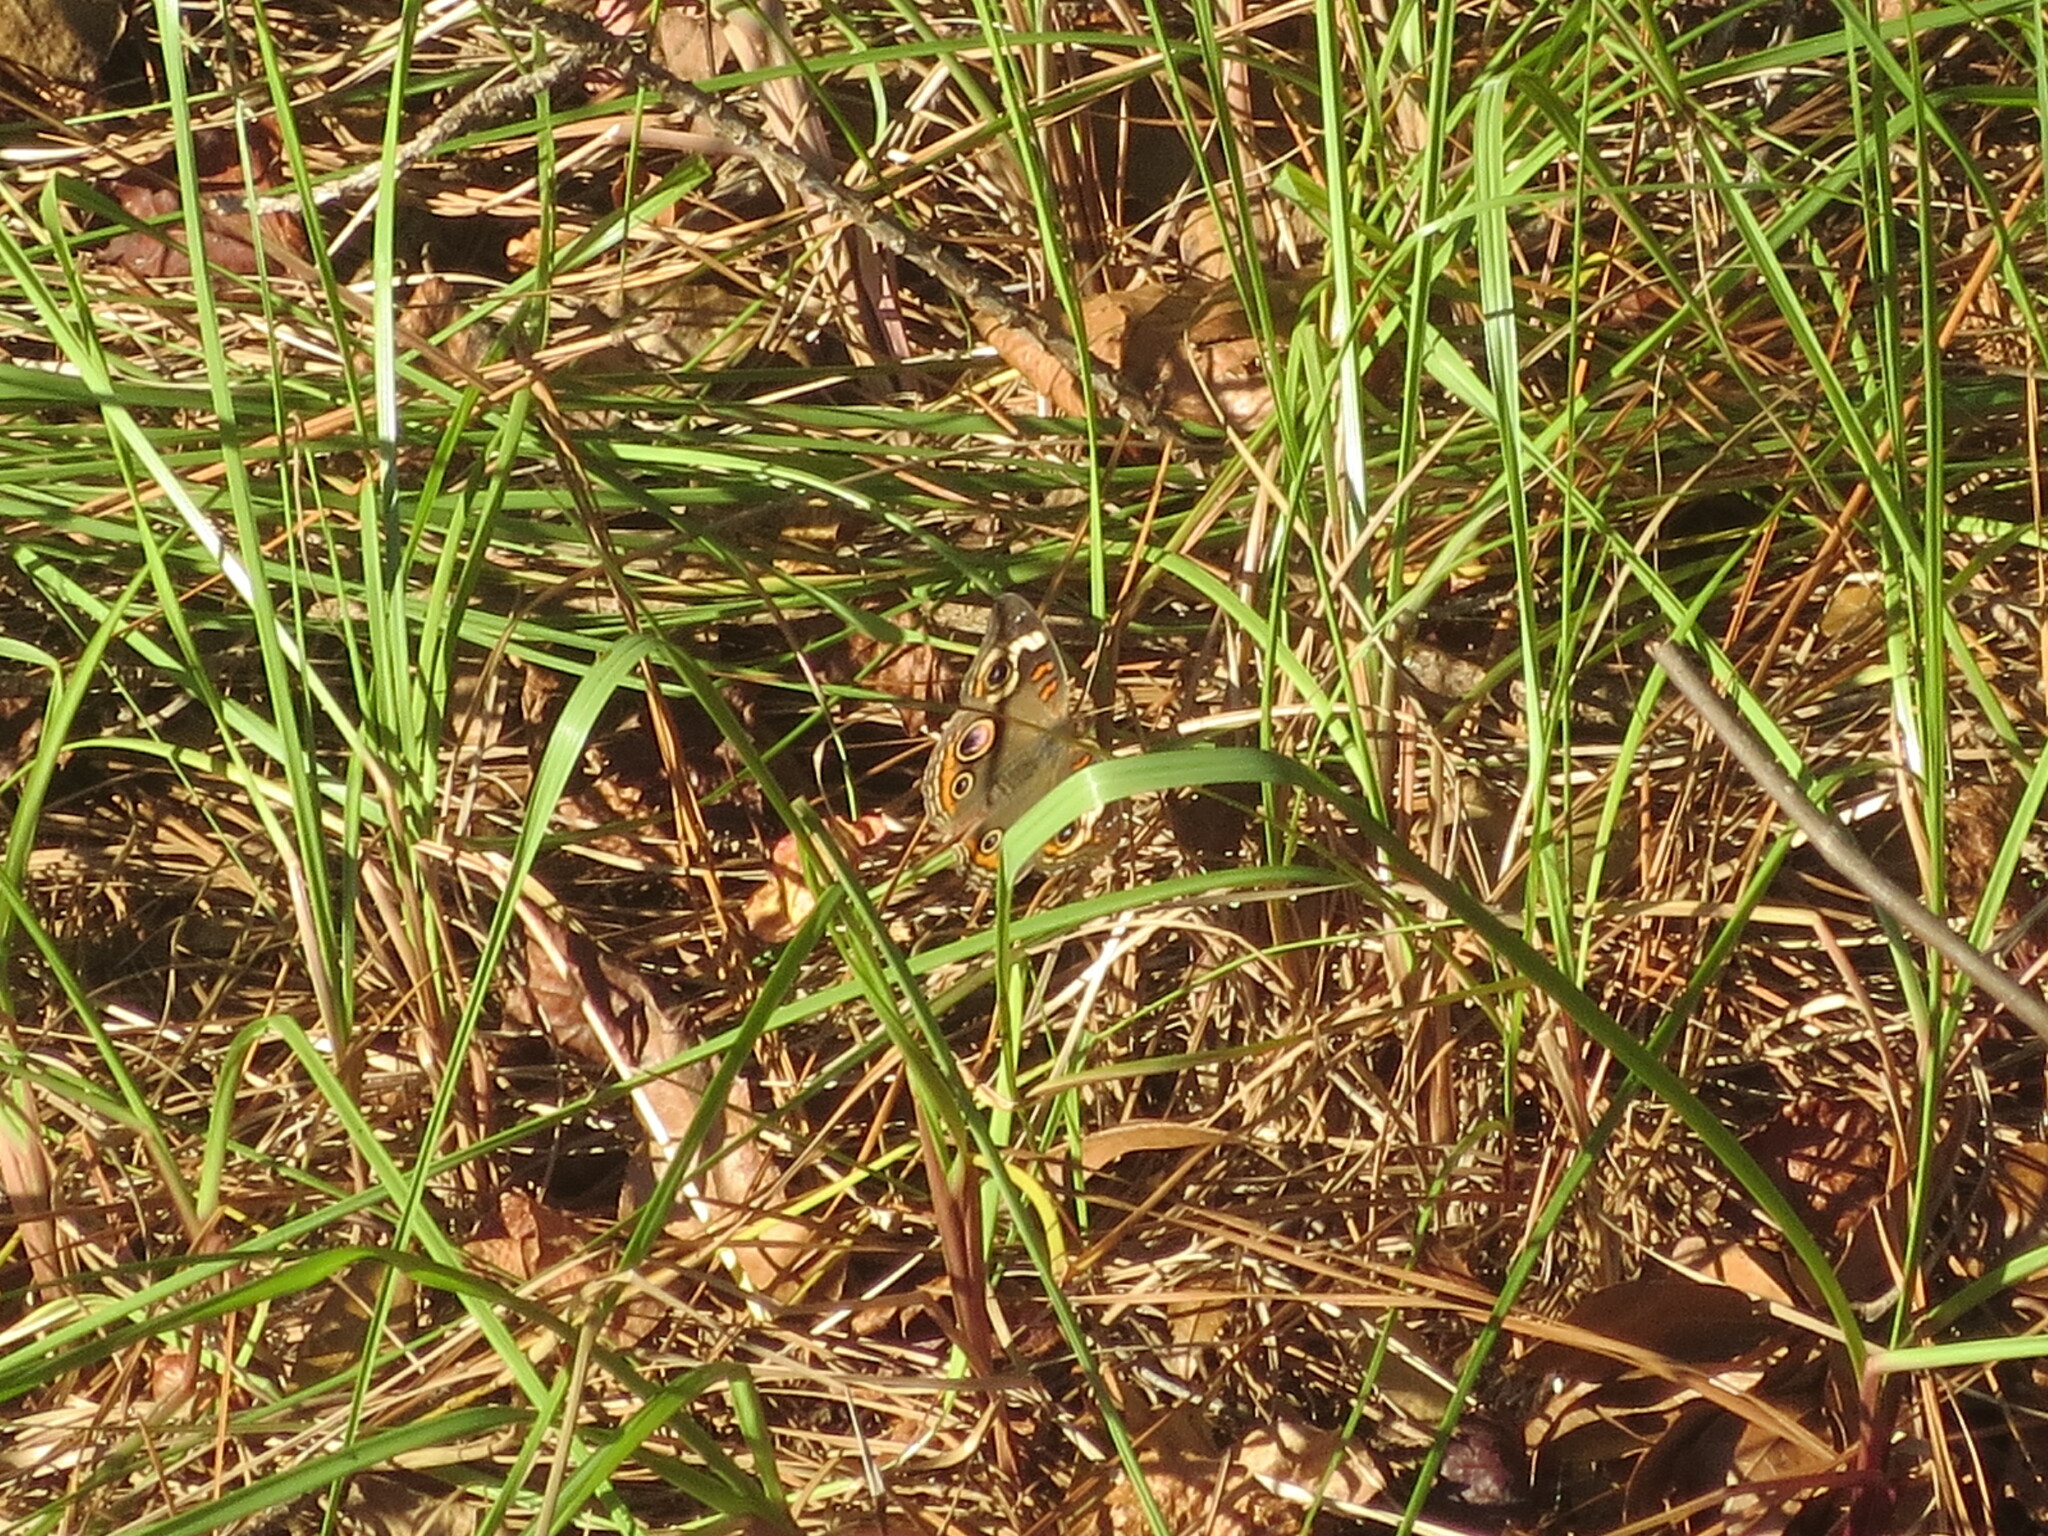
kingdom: Animalia
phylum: Arthropoda
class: Insecta
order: Lepidoptera
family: Nymphalidae
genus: Junonia
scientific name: Junonia coenia
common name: Common buckeye
